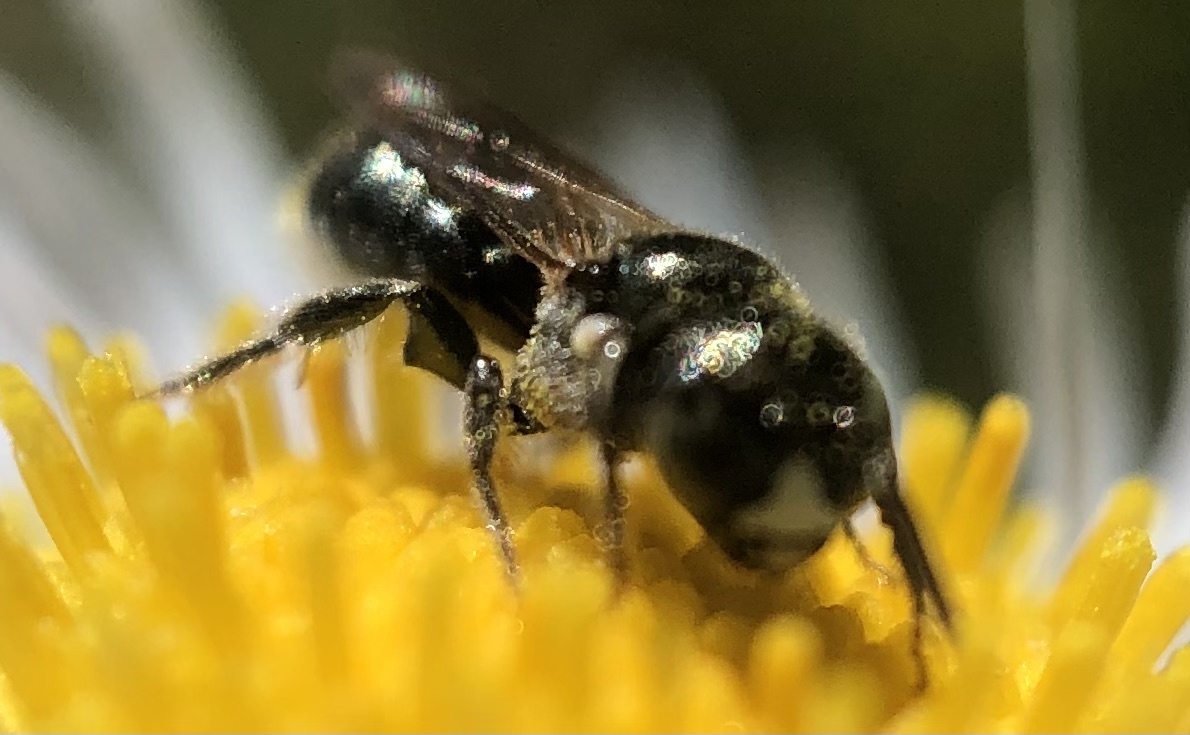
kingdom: Animalia
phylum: Arthropoda
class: Insecta
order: Hymenoptera
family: Apidae
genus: Ceratina
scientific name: Ceratina strenua
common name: Nimble carpenter bee
